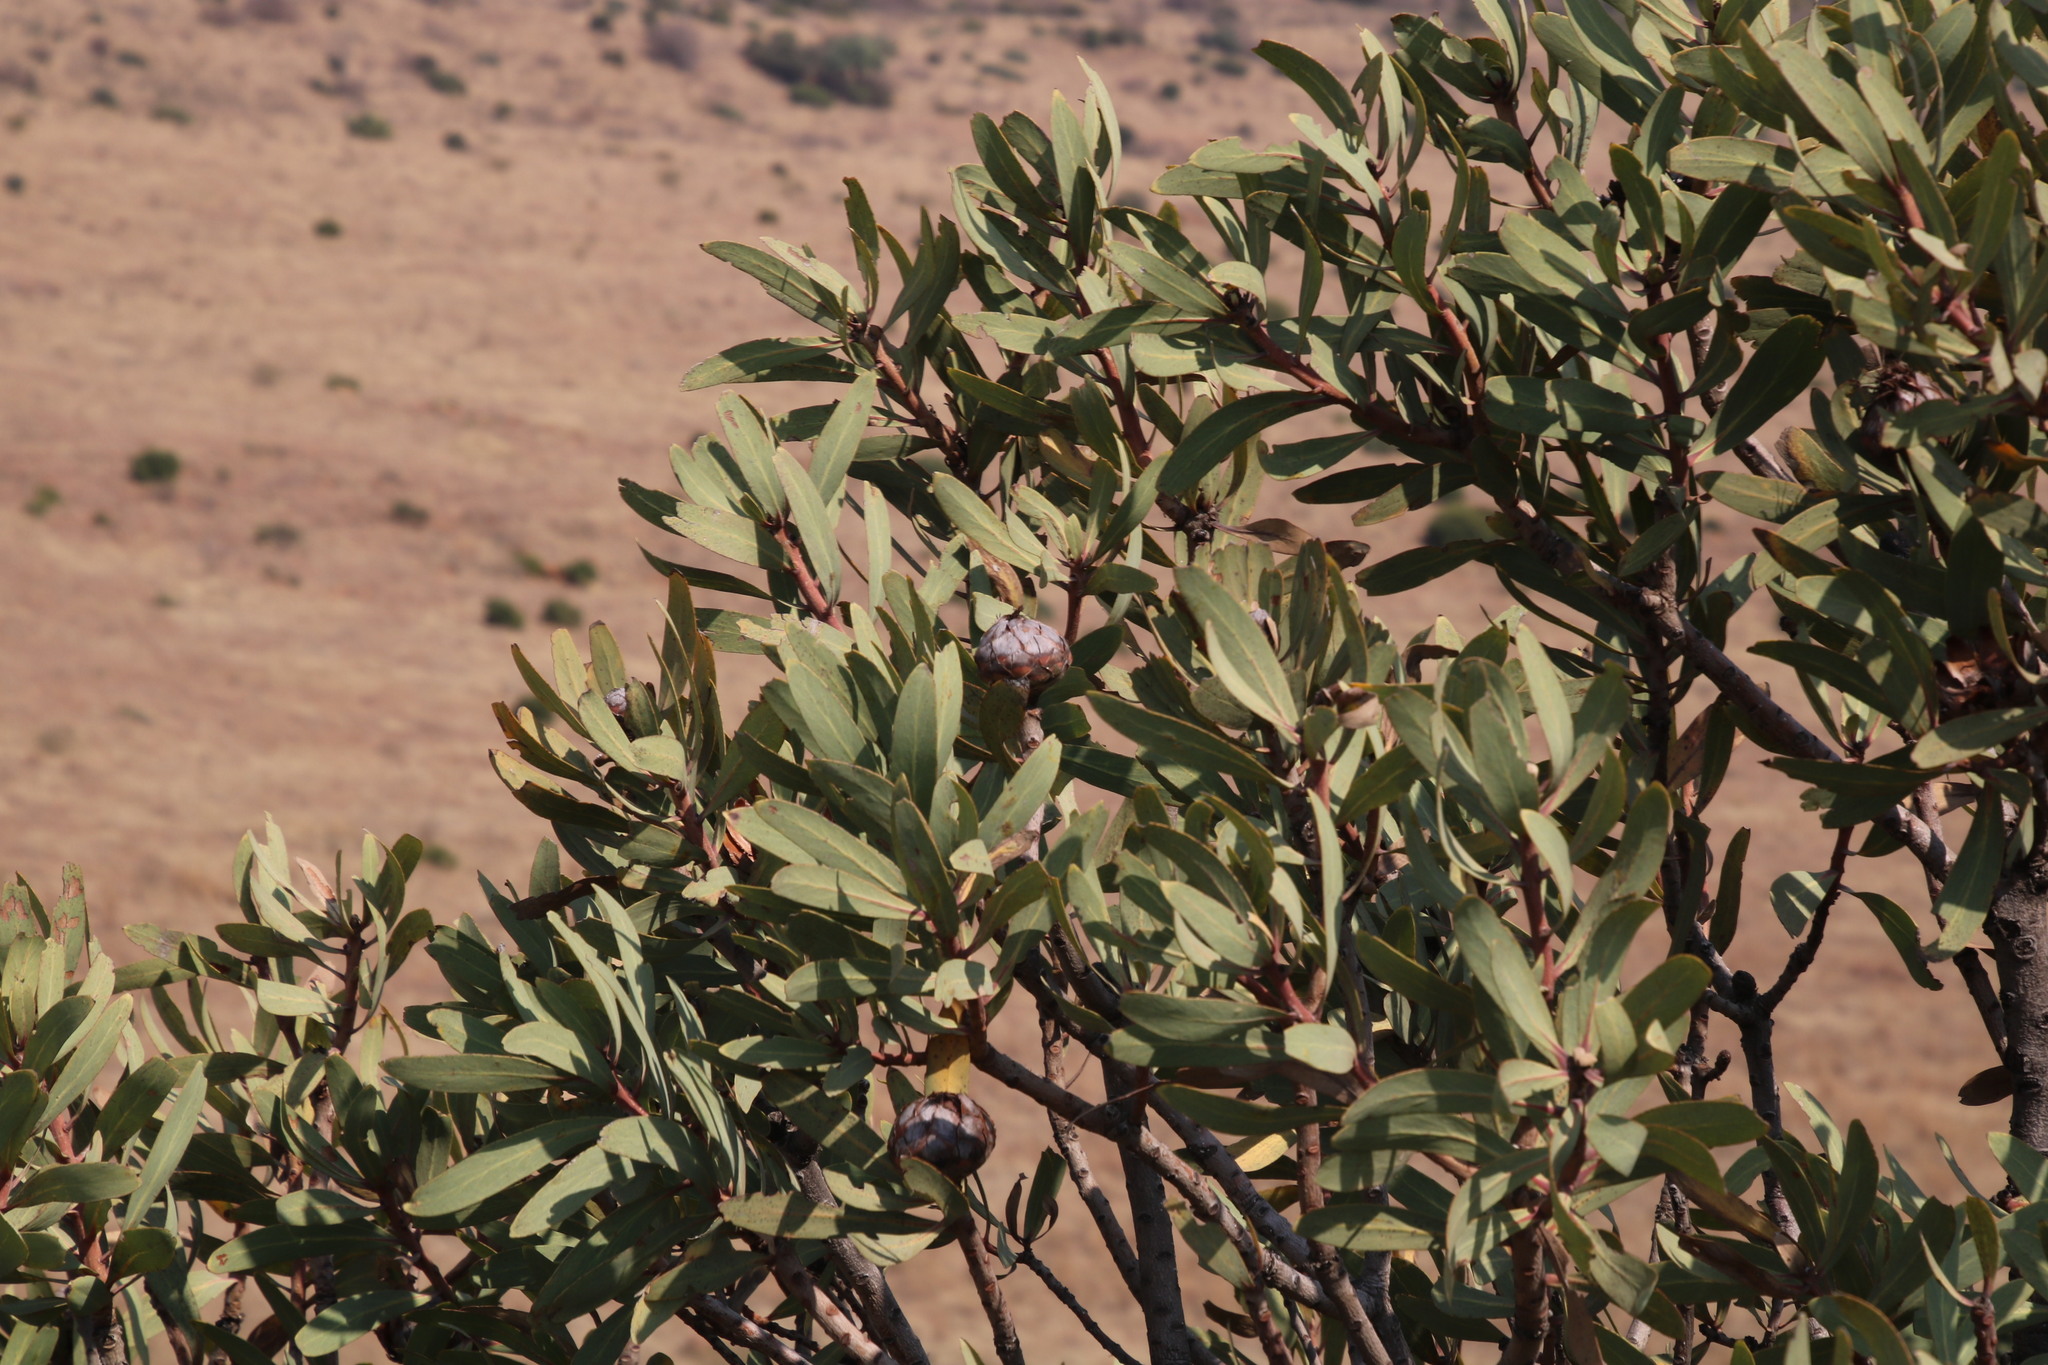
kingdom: Plantae
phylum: Tracheophyta
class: Magnoliopsida
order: Proteales
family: Proteaceae
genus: Protea
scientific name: Protea caffra
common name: Common sugarbush
